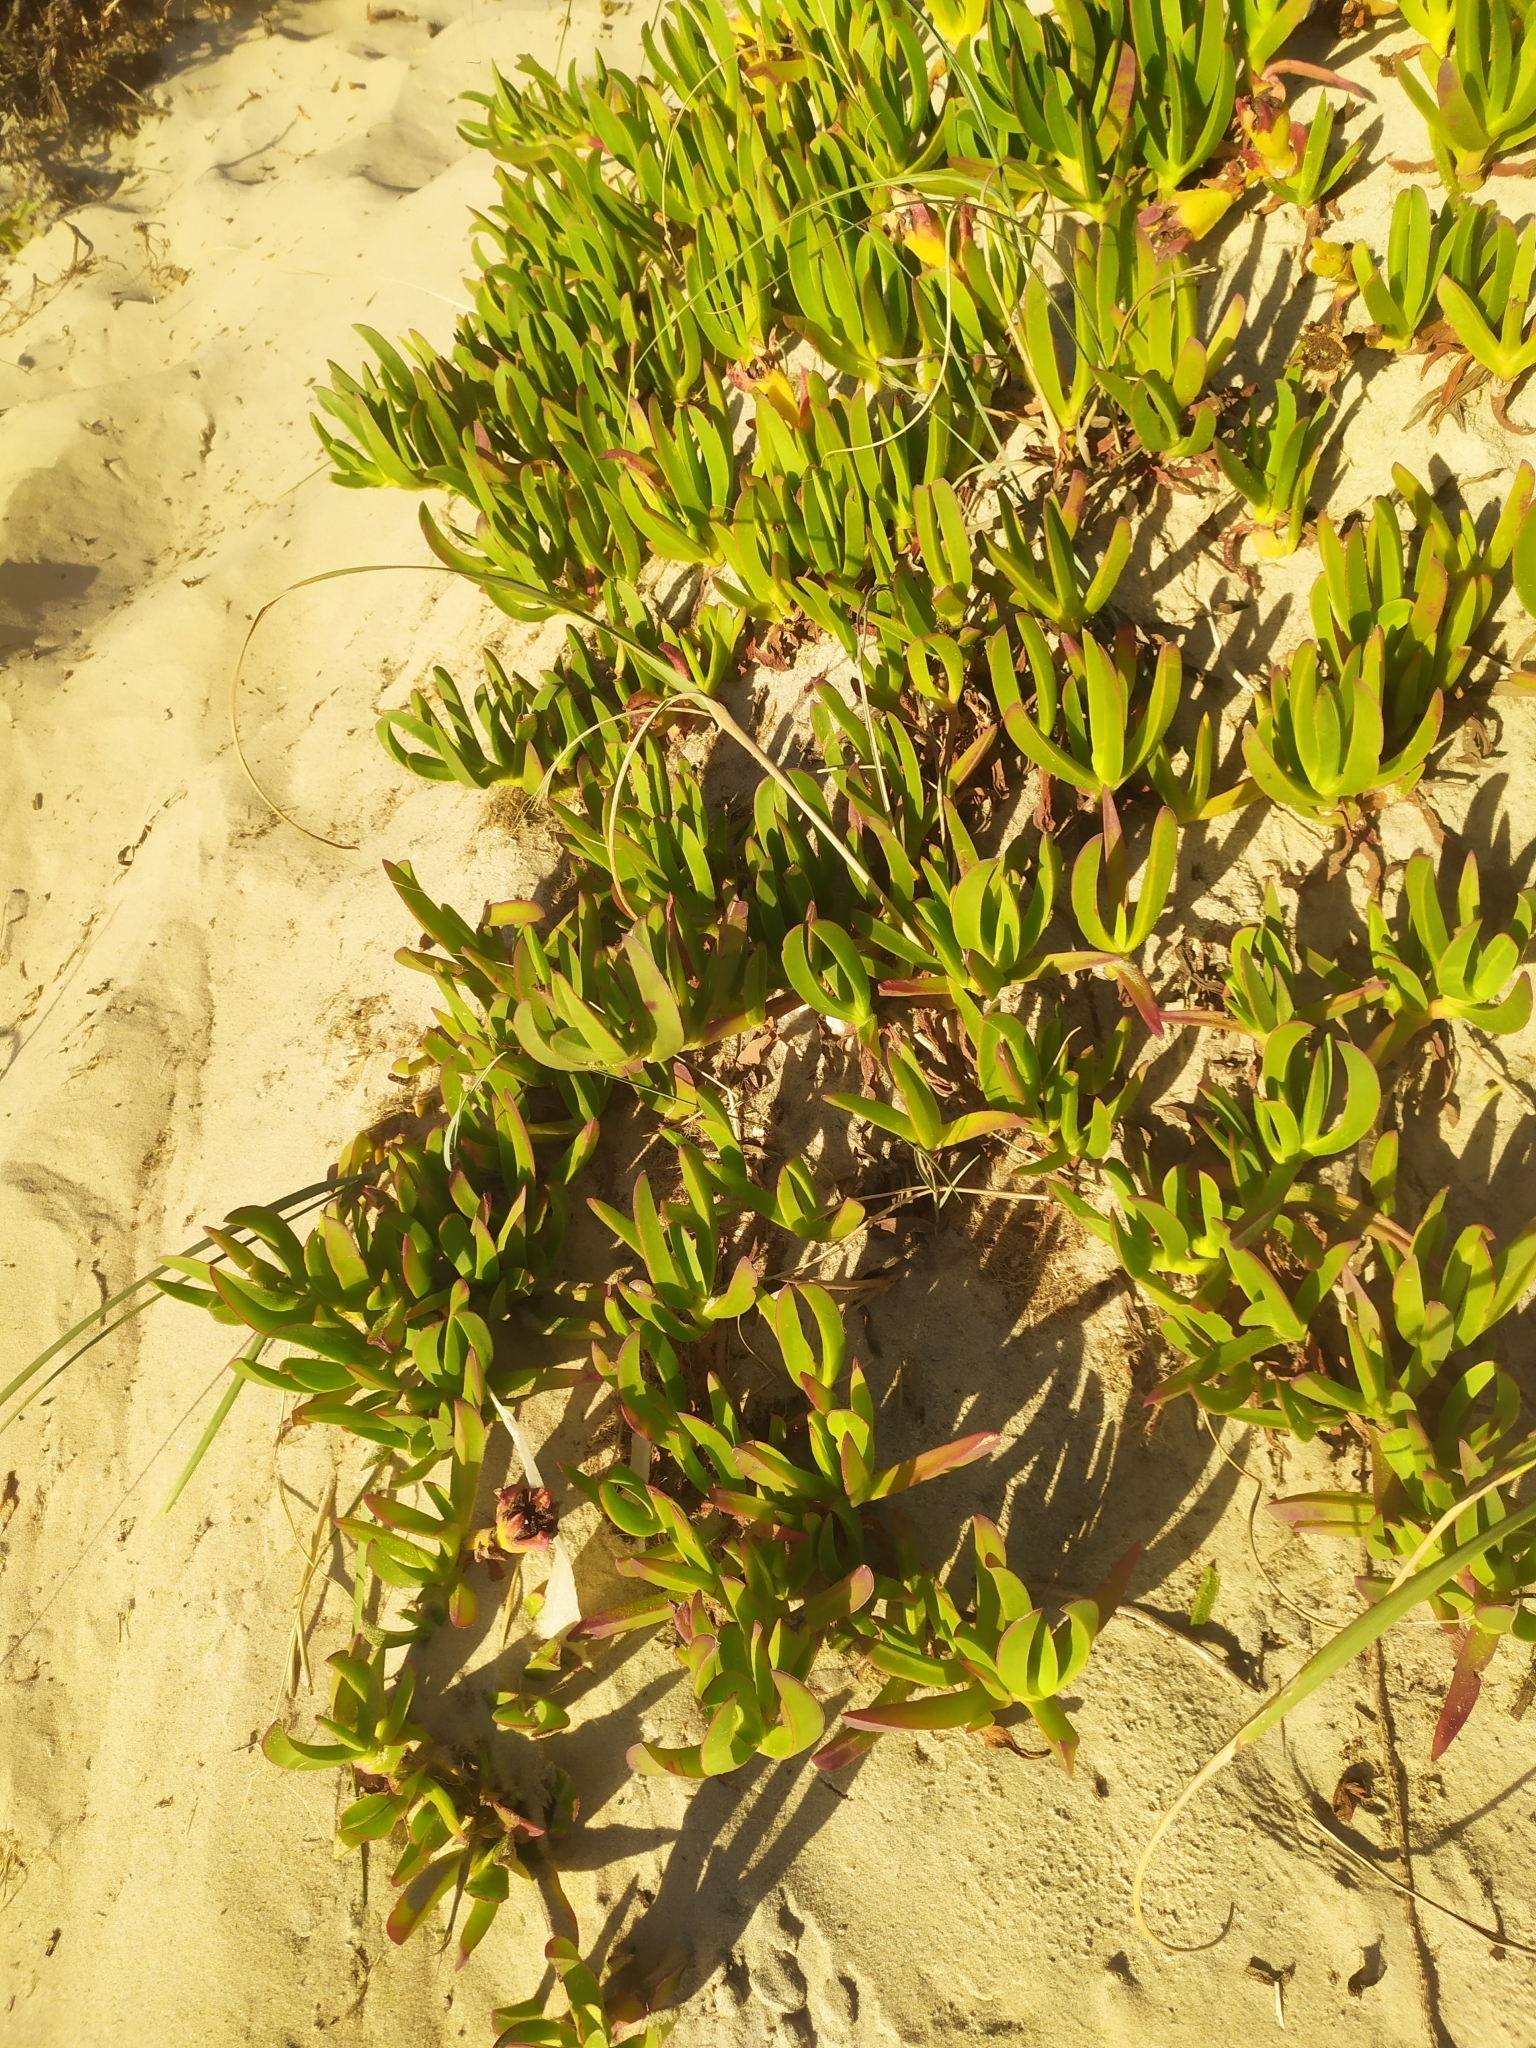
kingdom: Plantae
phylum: Tracheophyta
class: Magnoliopsida
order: Caryophyllales
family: Aizoaceae
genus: Carpobrotus
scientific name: Carpobrotus edulis
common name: Hottentot-fig
